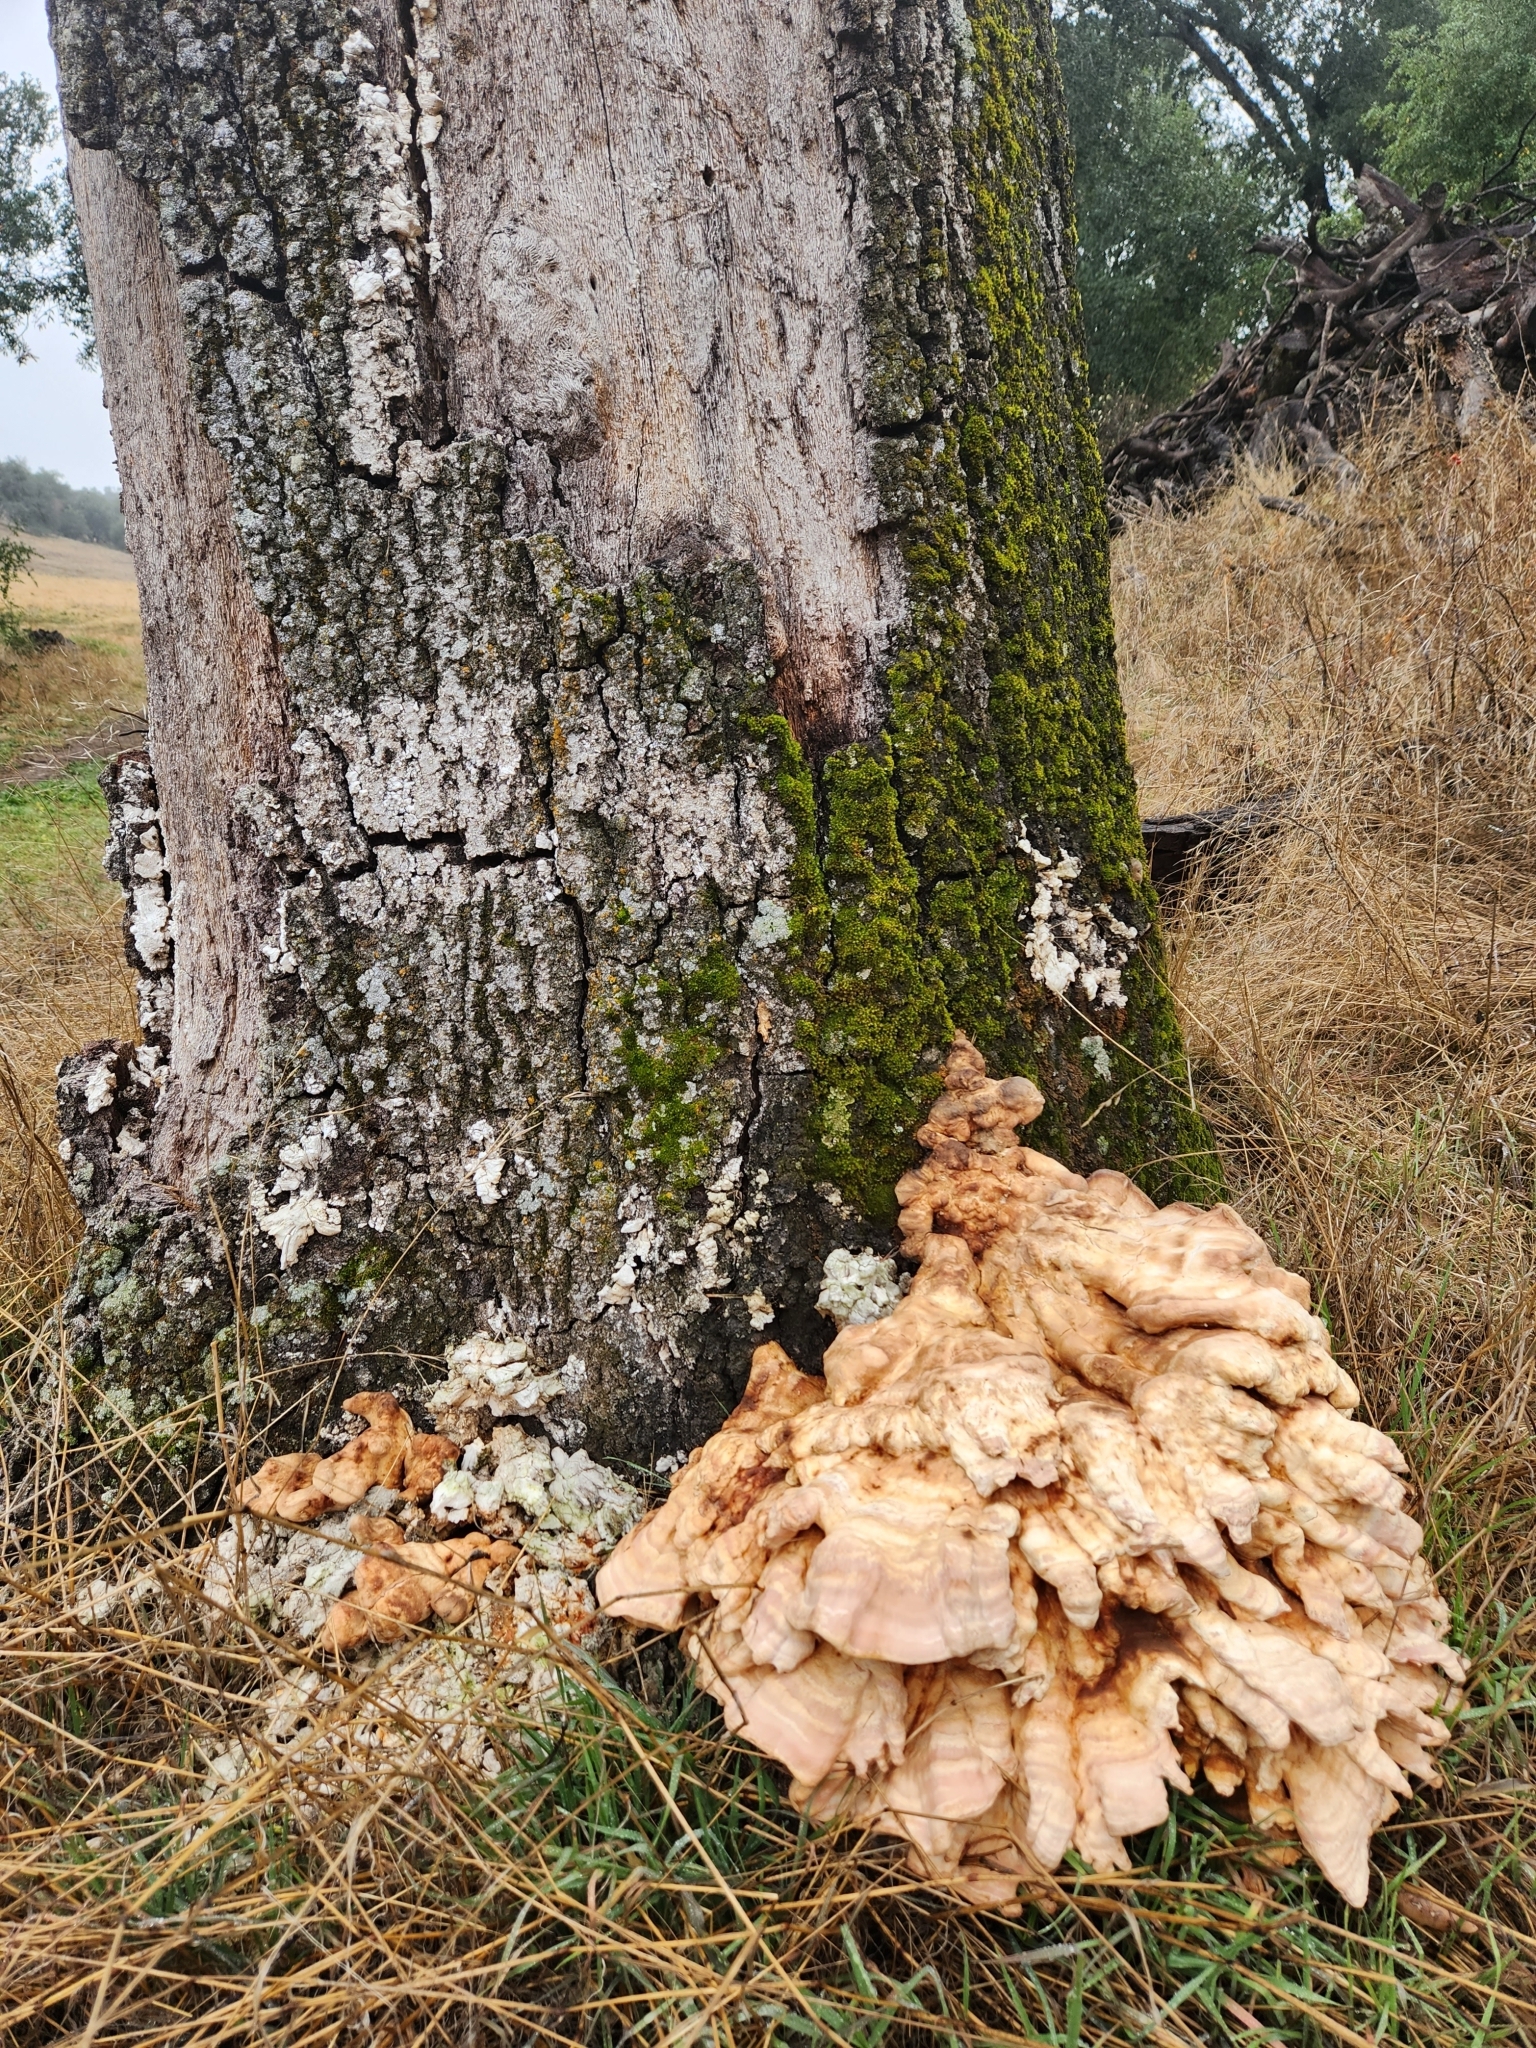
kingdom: Fungi
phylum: Basidiomycota
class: Agaricomycetes
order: Polyporales
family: Laetiporaceae
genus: Laetiporus
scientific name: Laetiporus gilbertsonii
